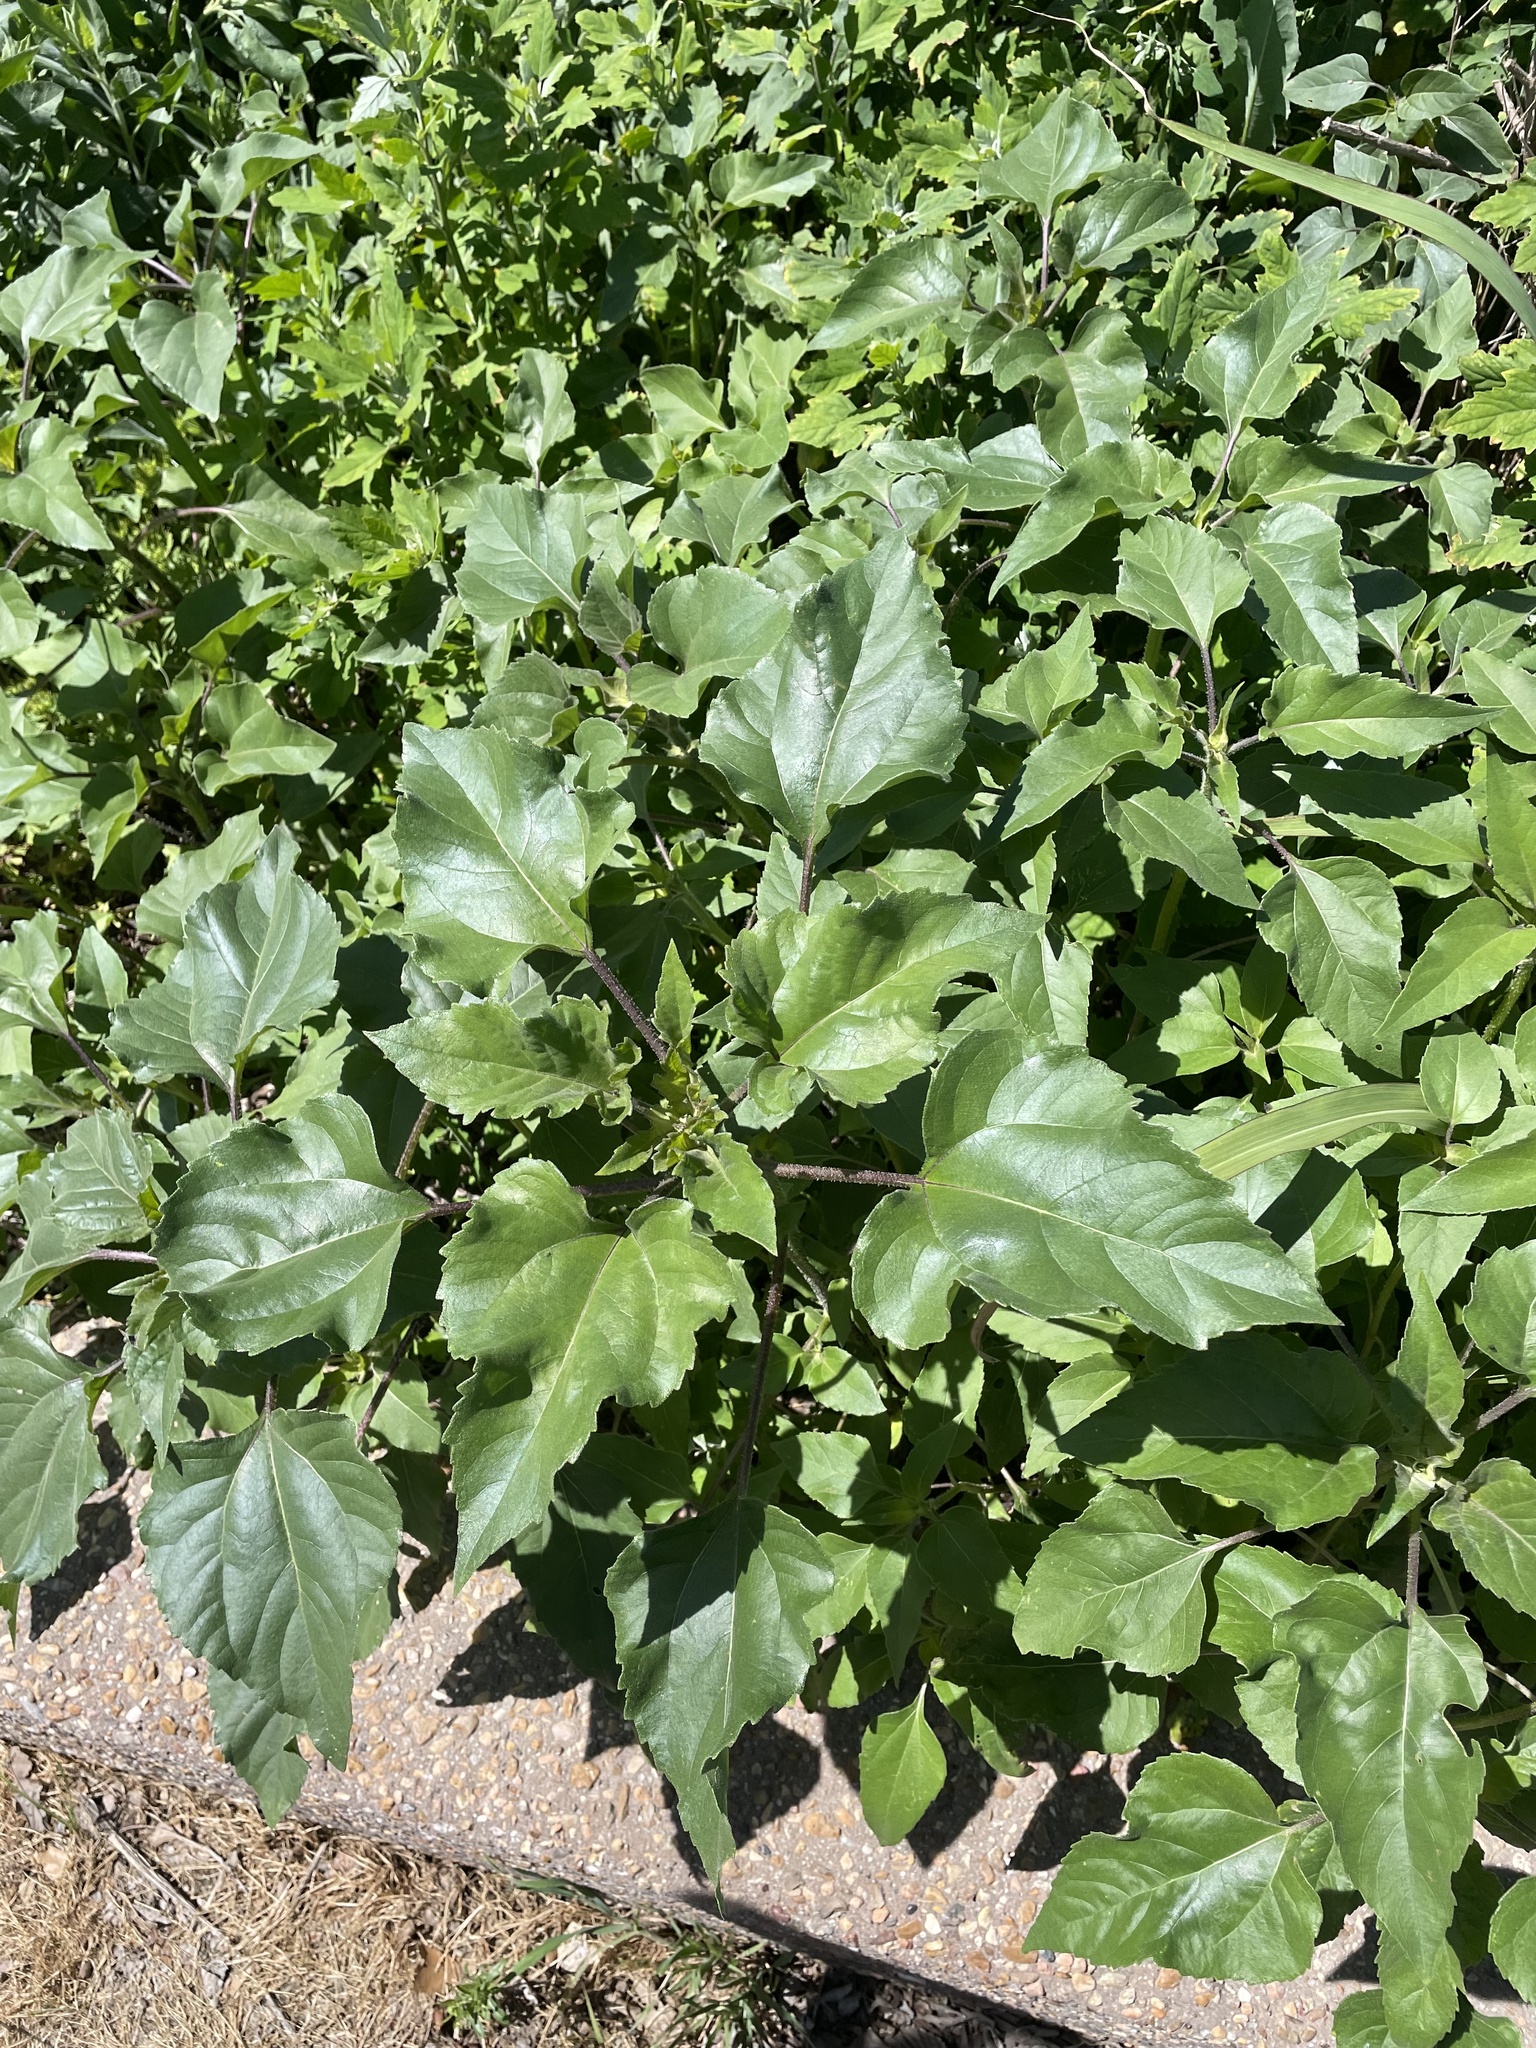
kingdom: Plantae
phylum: Tracheophyta
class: Magnoliopsida
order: Asterales
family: Asteraceae
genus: Helianthus
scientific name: Helianthus annuus
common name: Sunflower
